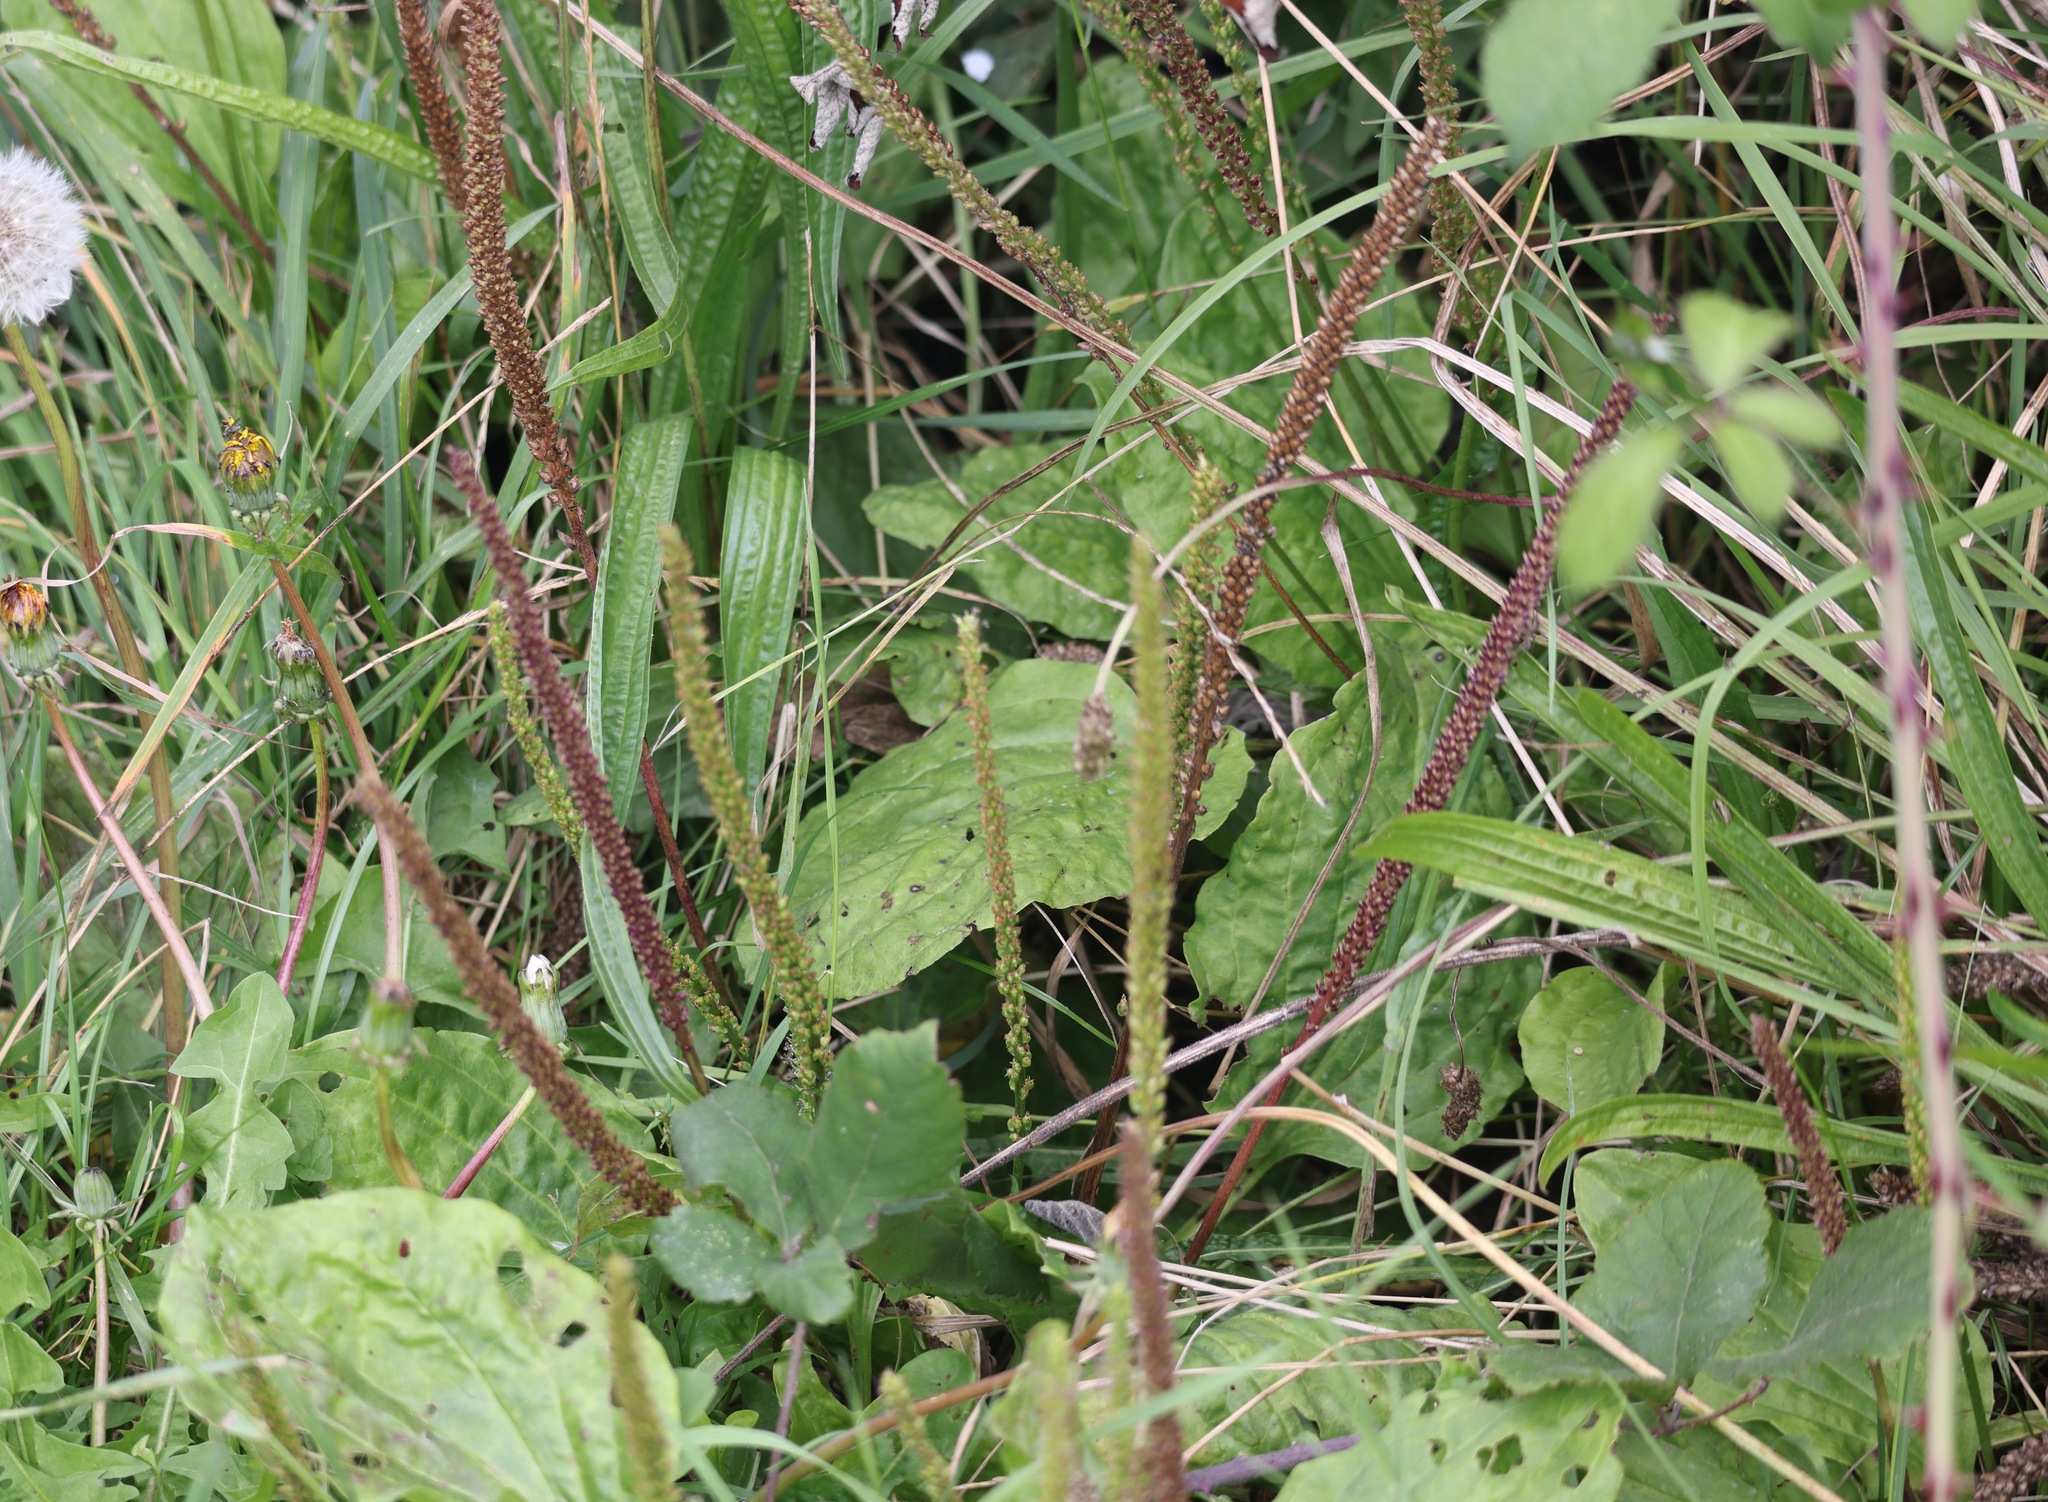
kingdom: Plantae
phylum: Tracheophyta
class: Magnoliopsida
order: Lamiales
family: Plantaginaceae
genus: Plantago
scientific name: Plantago major
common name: Common plantain
